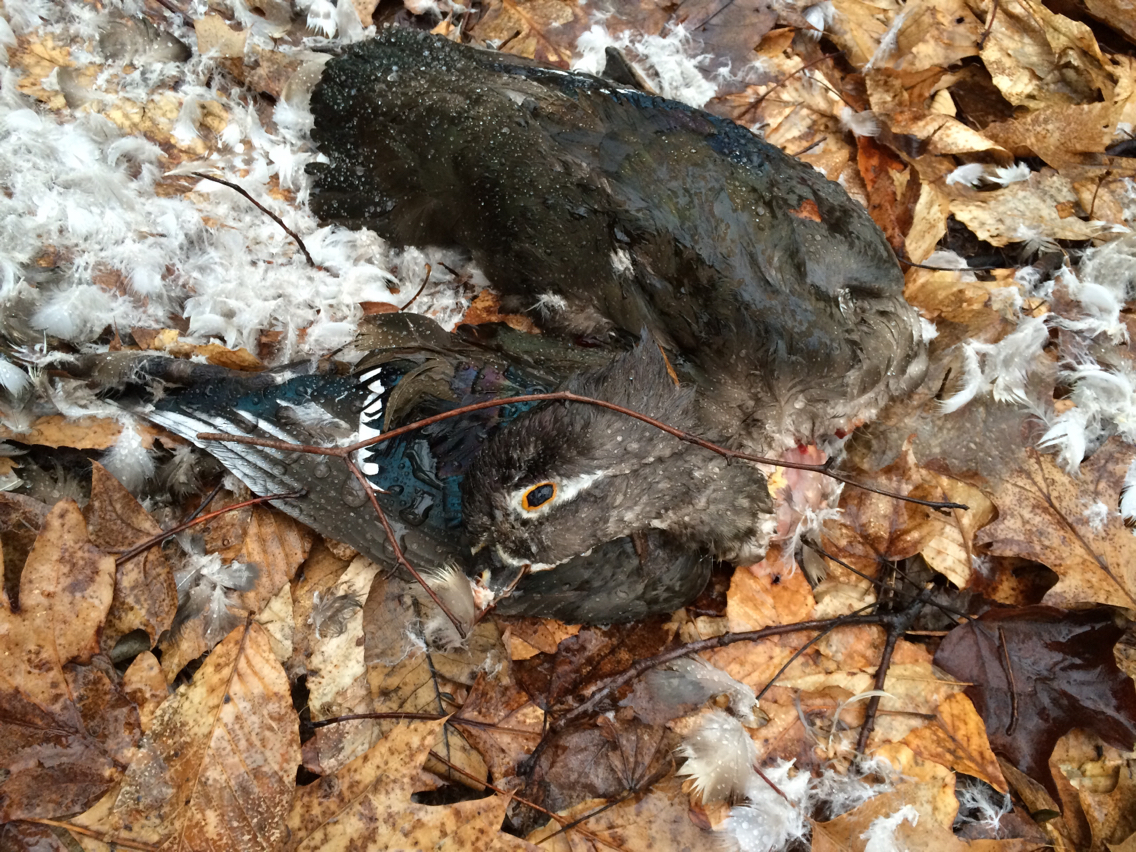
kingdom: Animalia
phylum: Chordata
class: Aves
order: Anseriformes
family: Anatidae
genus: Aix
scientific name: Aix sponsa
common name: Wood duck
